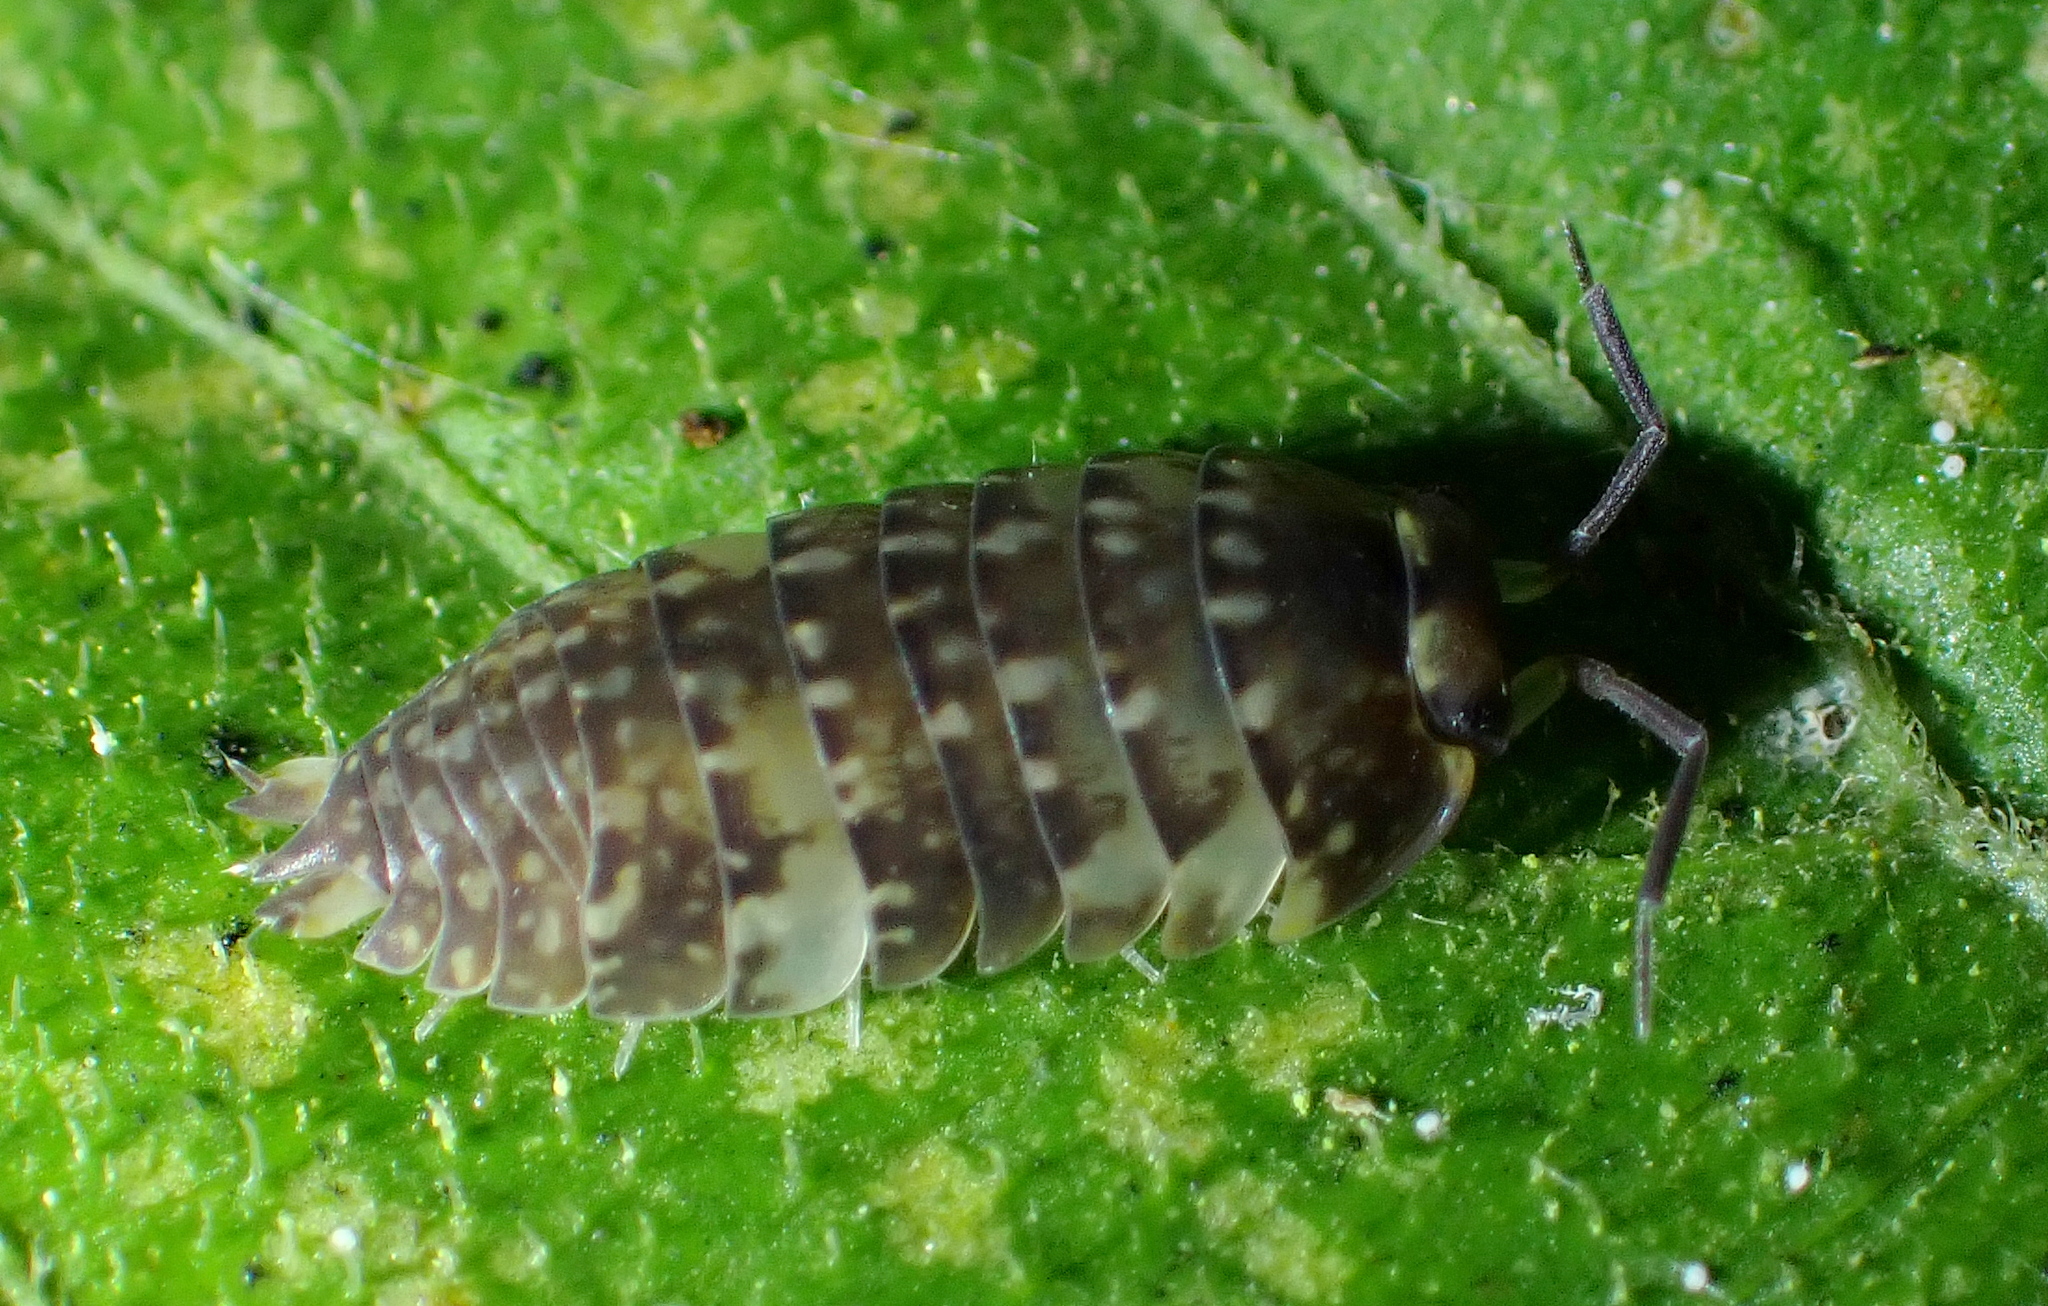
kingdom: Animalia
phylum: Arthropoda
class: Malacostraca
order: Isopoda
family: Eubelidae
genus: Periscyphops
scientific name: Periscyphops variabilis
